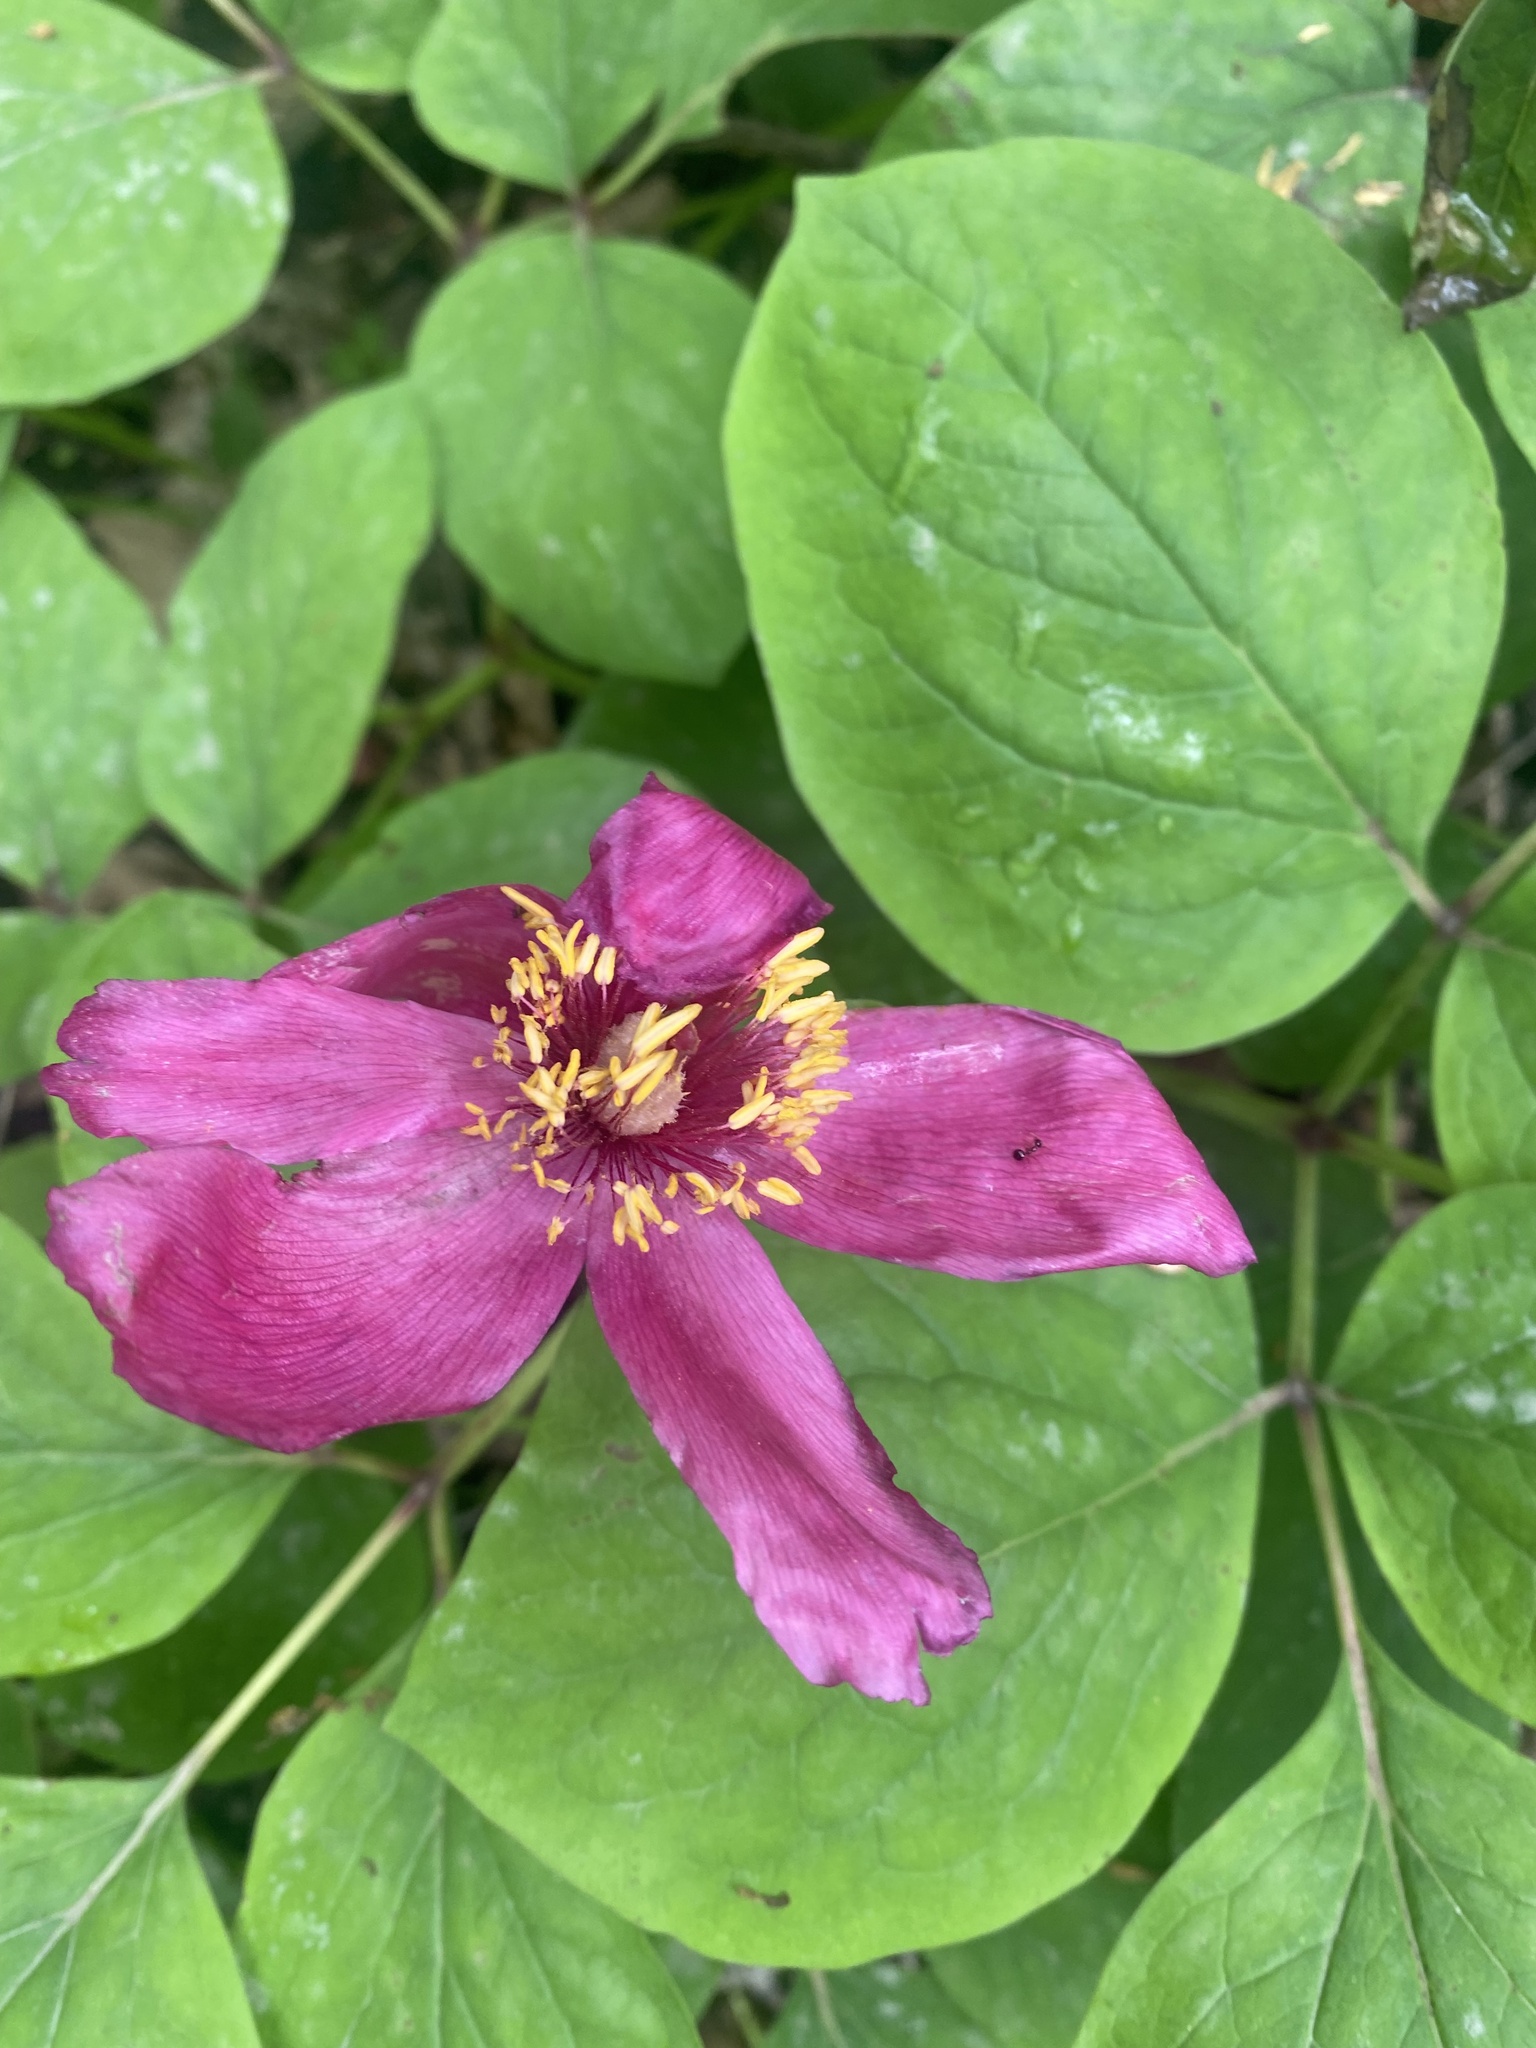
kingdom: Plantae
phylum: Tracheophyta
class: Magnoliopsida
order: Saxifragales
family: Paeoniaceae
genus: Paeonia
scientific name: Paeonia caucasica
